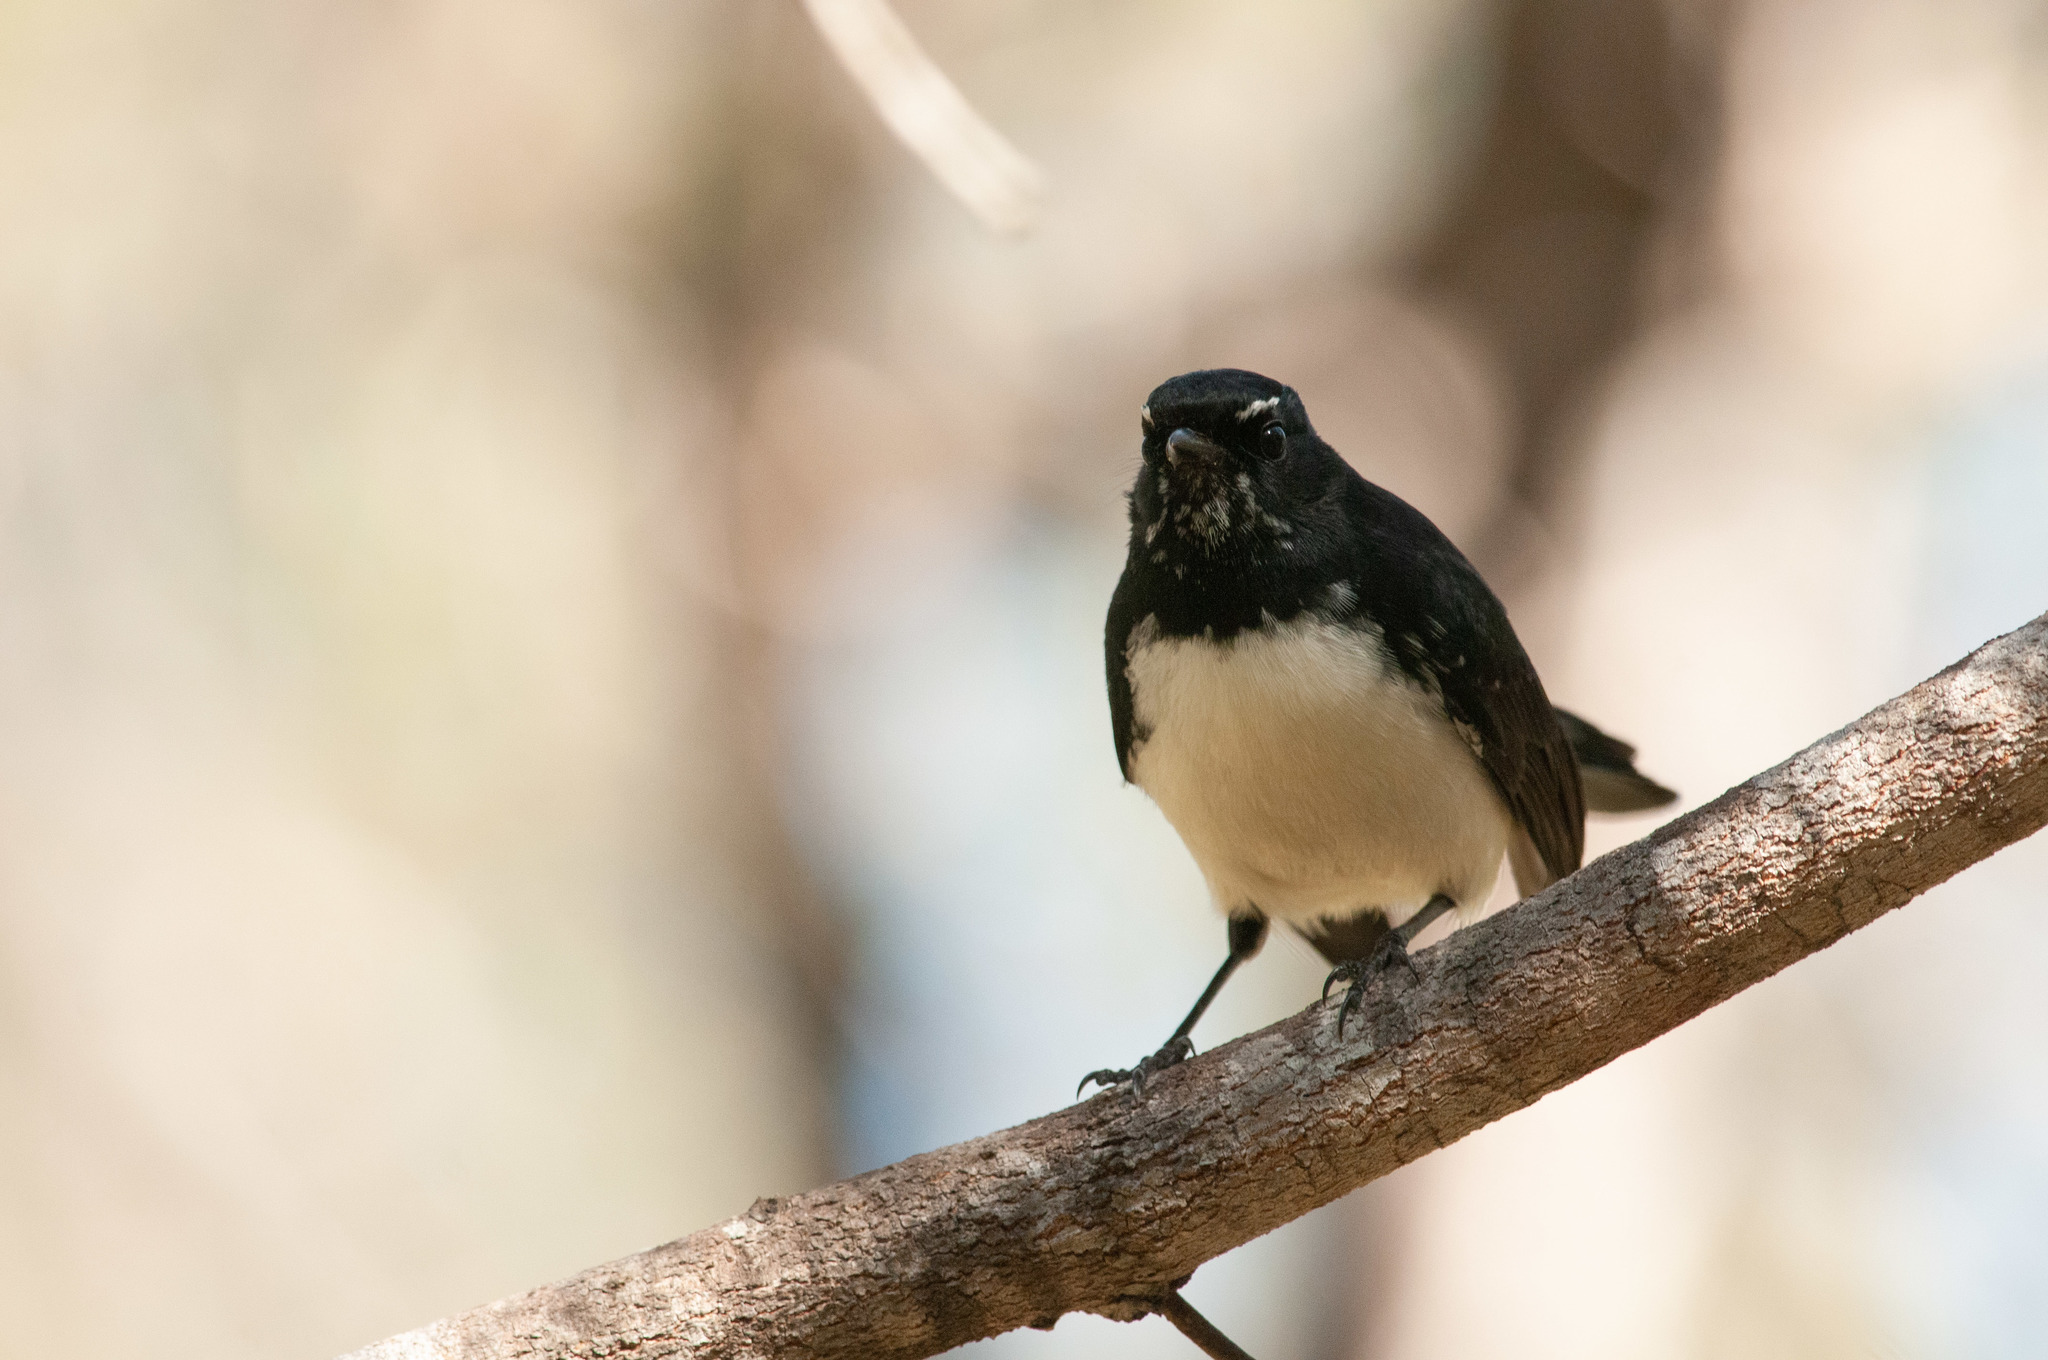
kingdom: Animalia
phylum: Chordata
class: Aves
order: Passeriformes
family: Rhipiduridae
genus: Rhipidura
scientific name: Rhipidura leucophrys
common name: Willie wagtail
